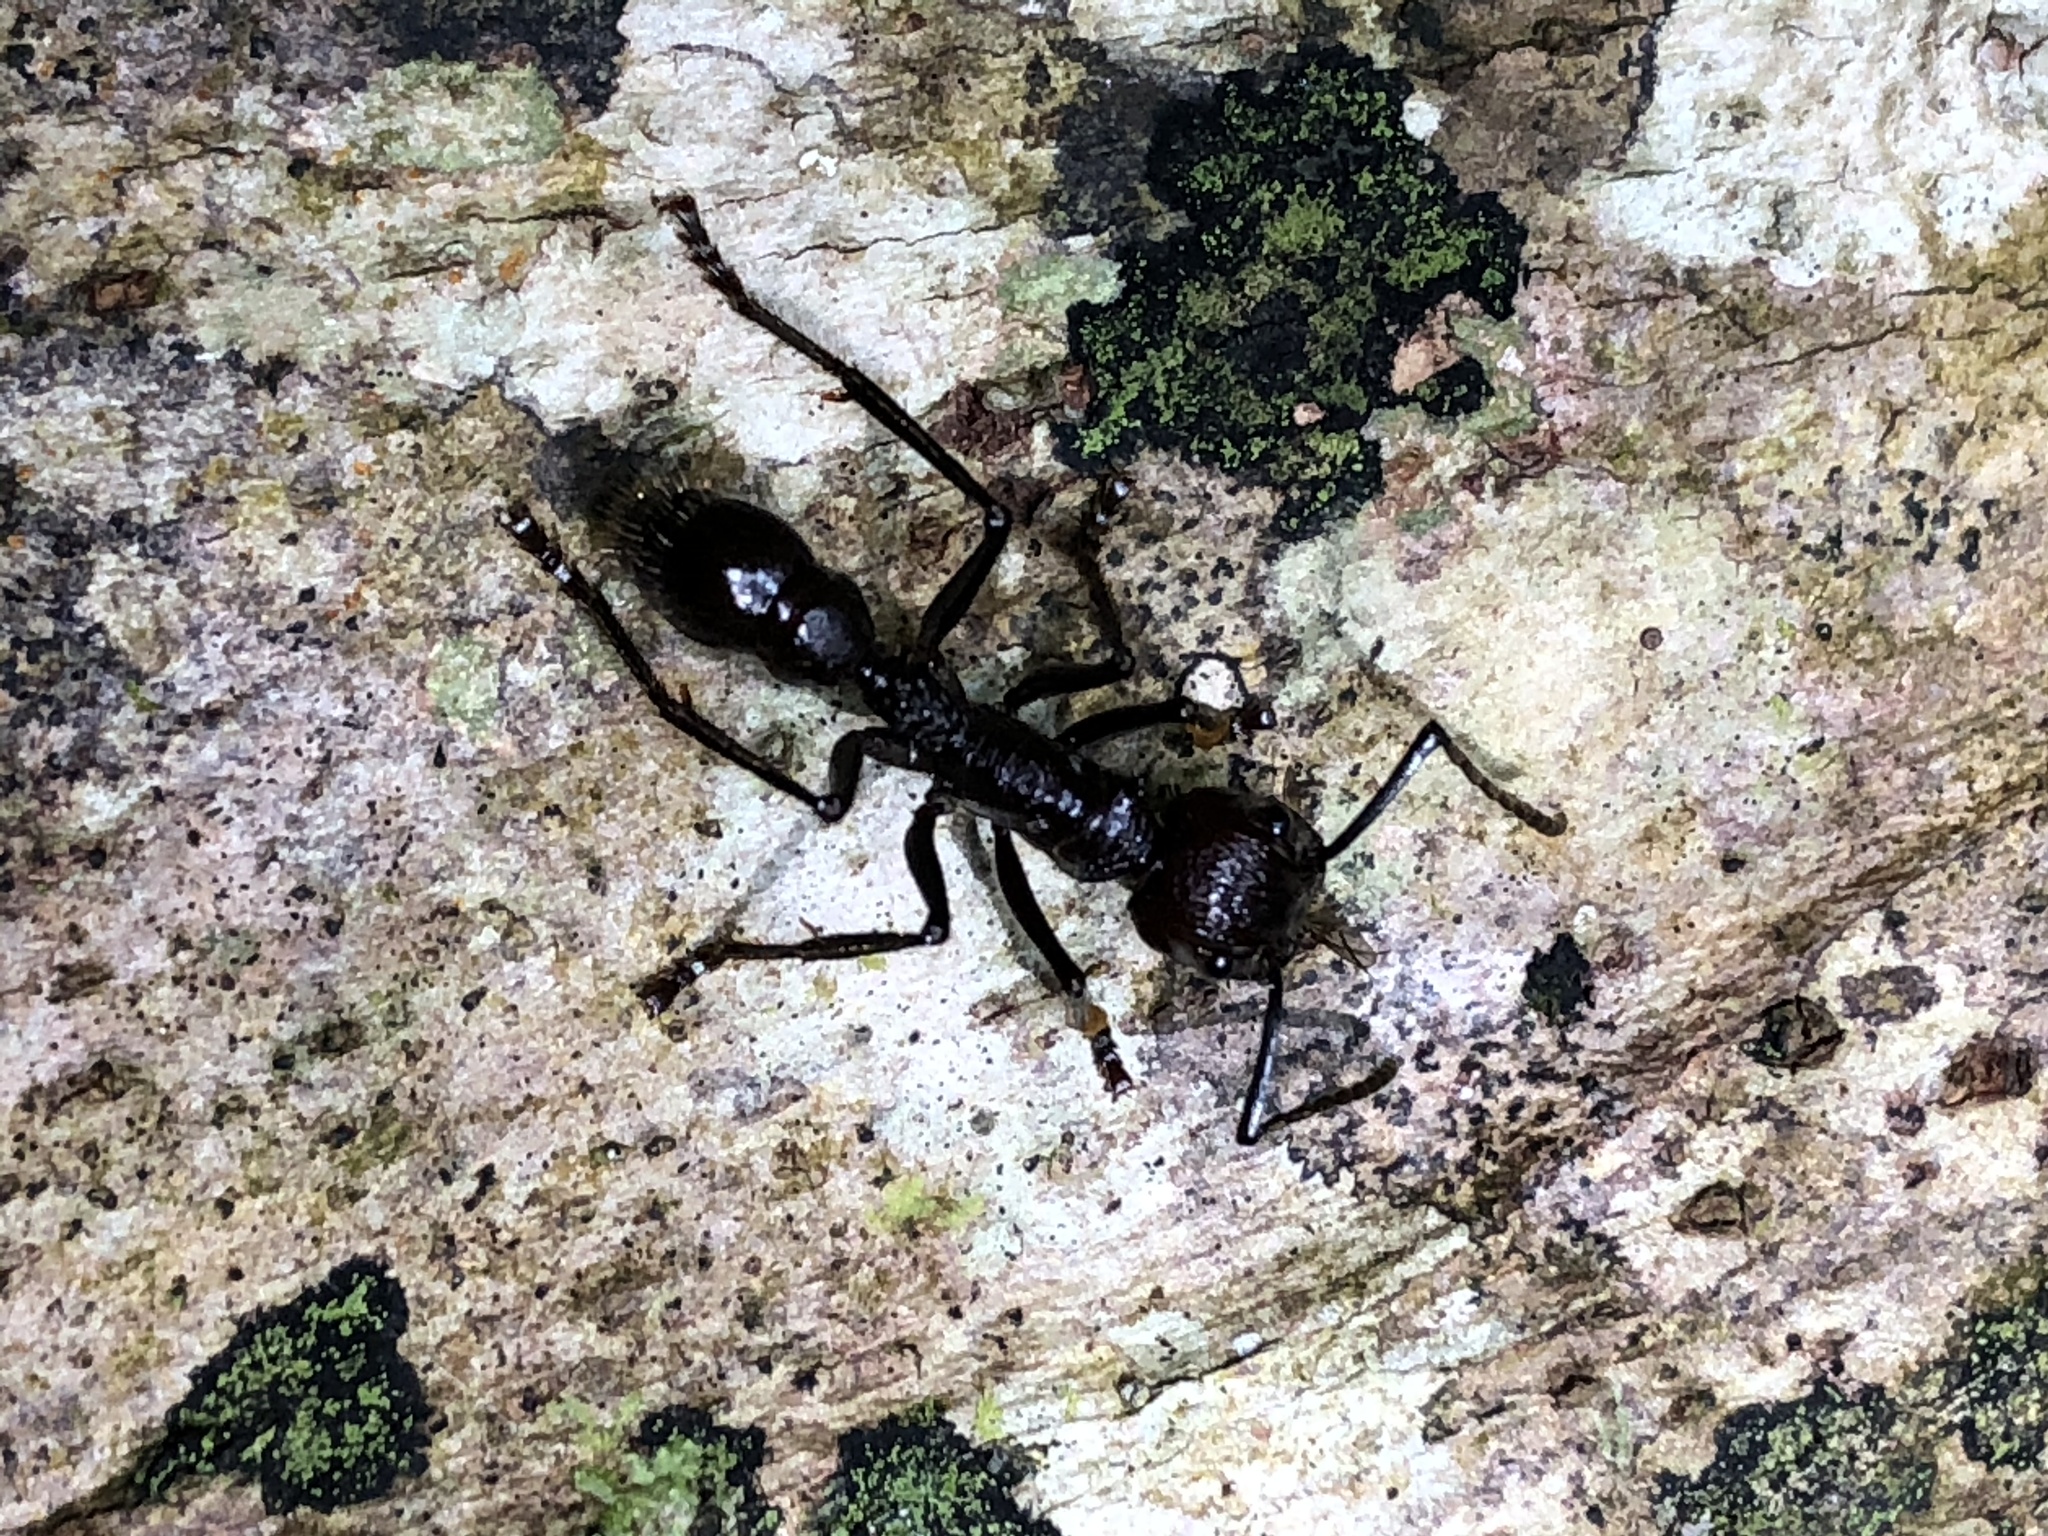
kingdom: Animalia
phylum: Arthropoda
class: Insecta
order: Hymenoptera
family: Formicidae
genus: Paraponera
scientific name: Paraponera clavata
